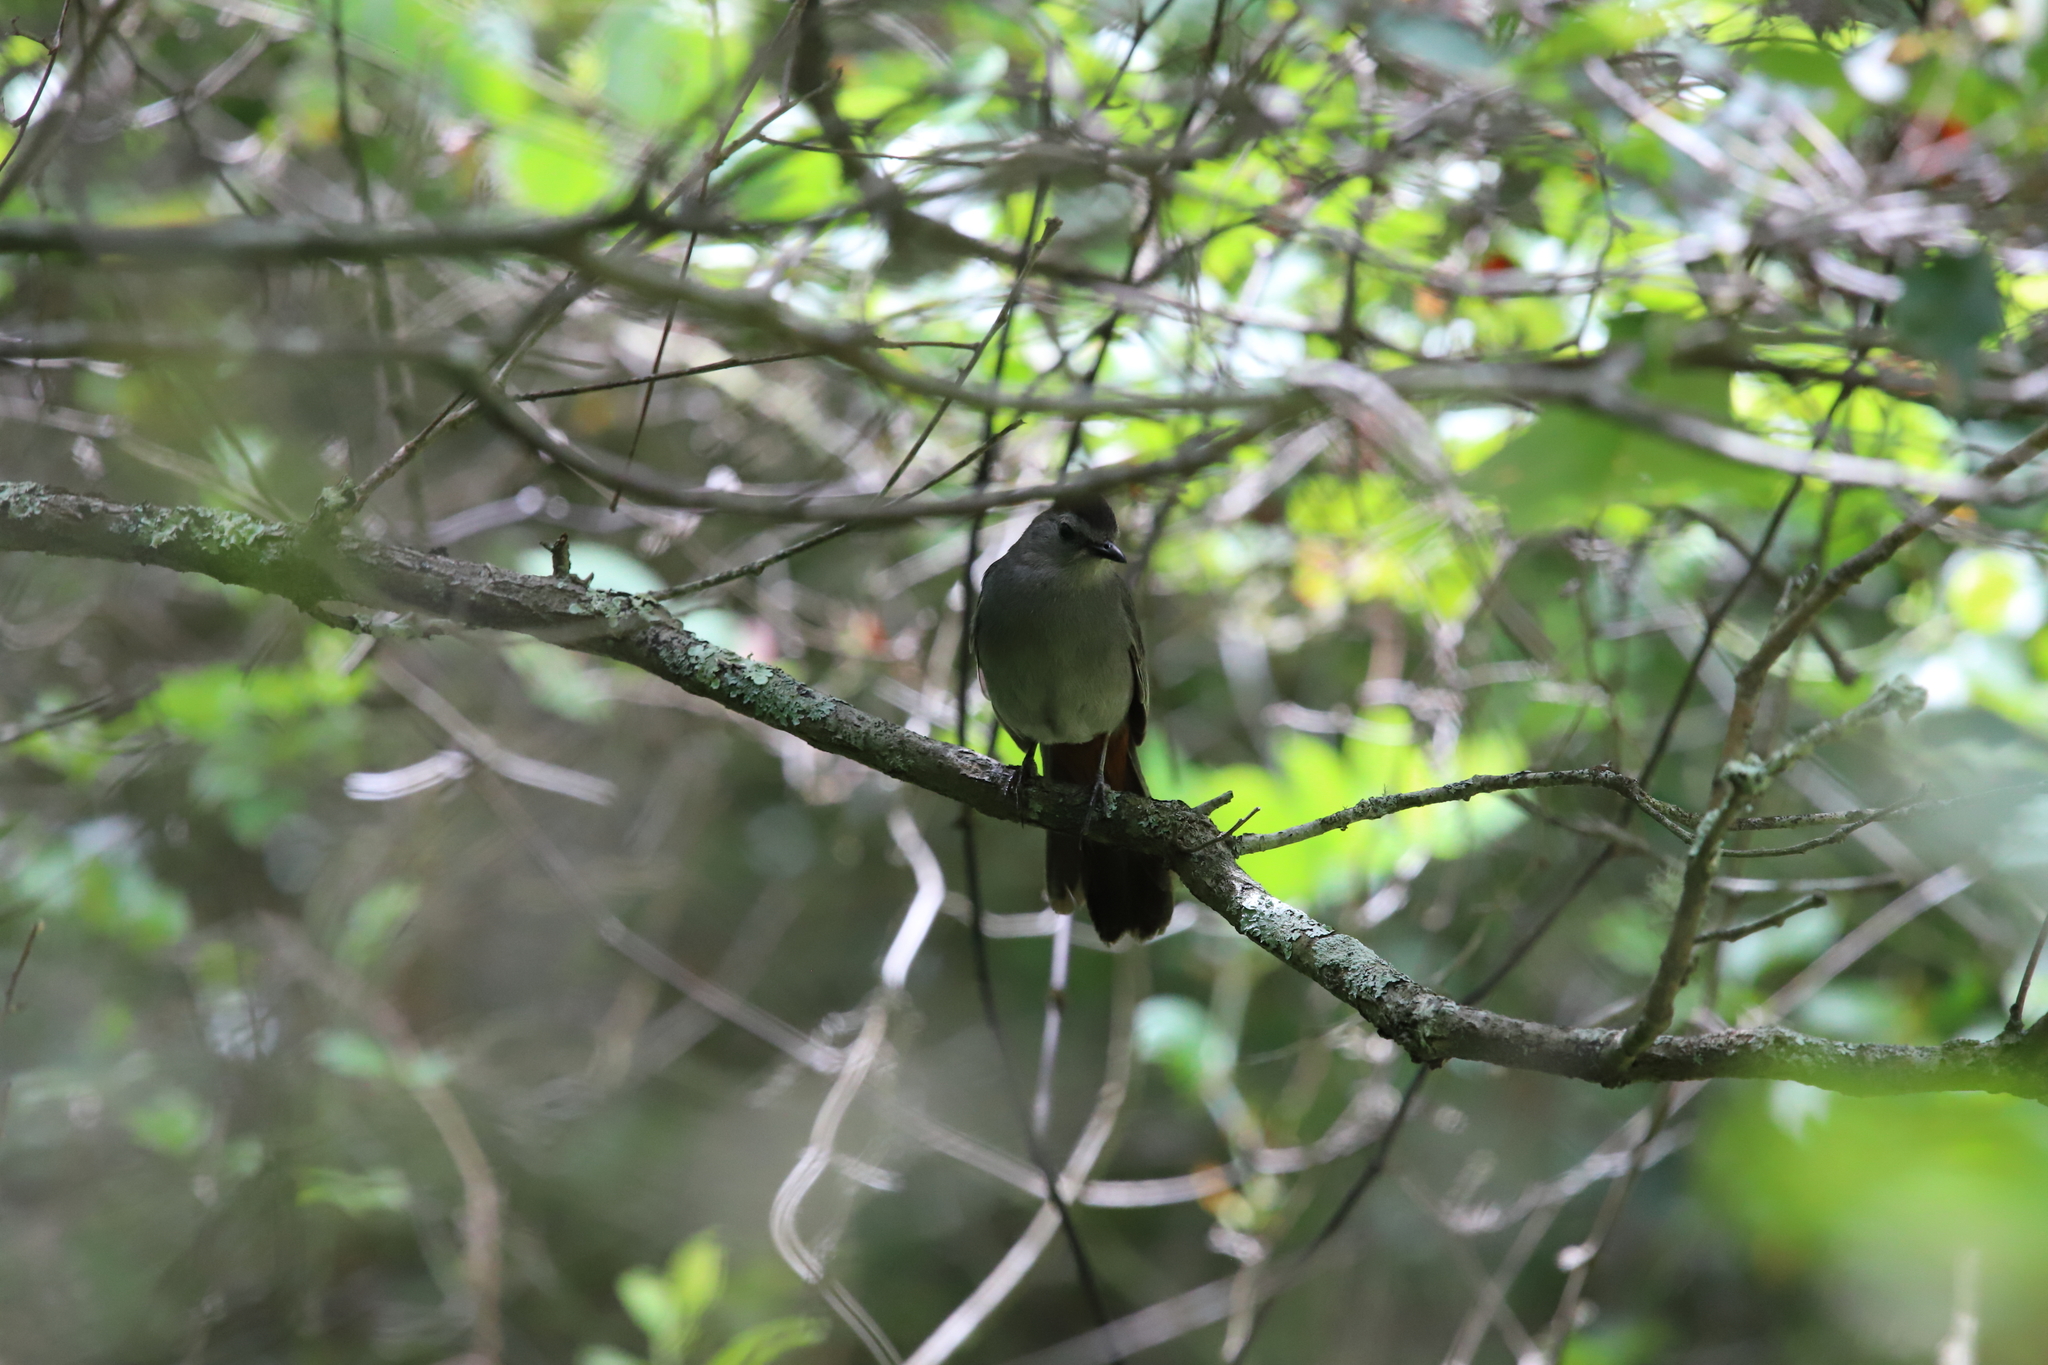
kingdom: Animalia
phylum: Chordata
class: Aves
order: Passeriformes
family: Mimidae
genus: Dumetella
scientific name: Dumetella carolinensis
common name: Gray catbird
